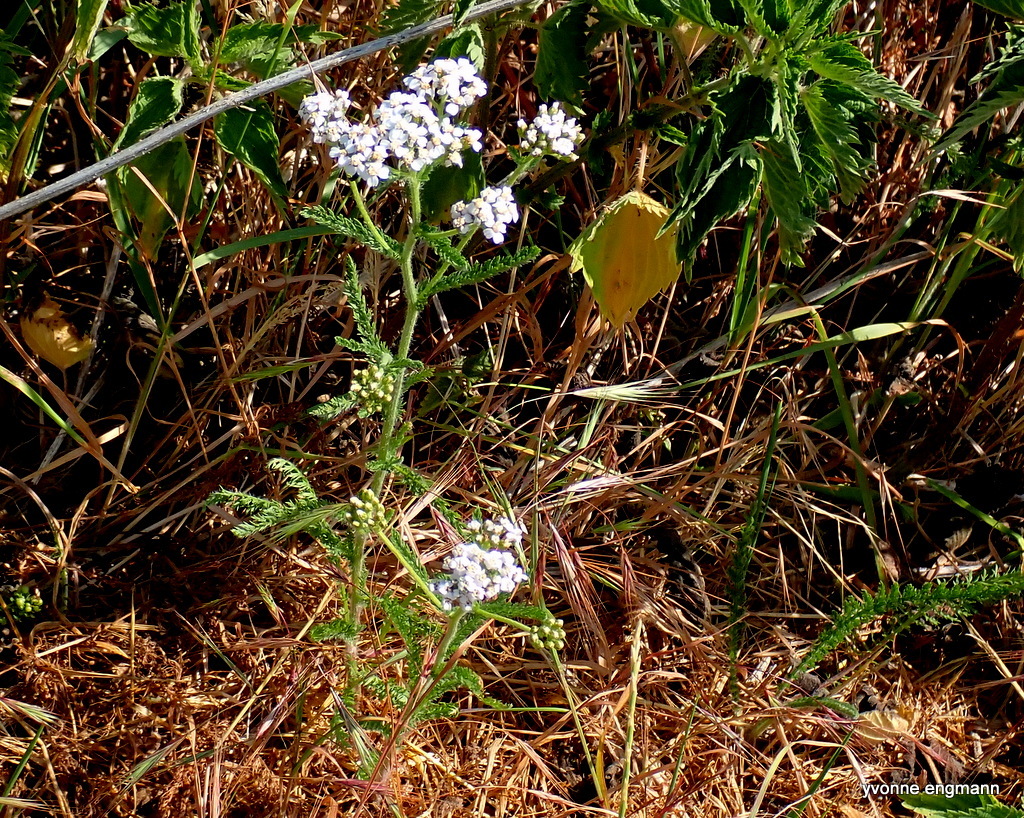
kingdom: Plantae
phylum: Tracheophyta
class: Magnoliopsida
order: Asterales
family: Asteraceae
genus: Achillea
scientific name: Achillea millefolium
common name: Yarrow
